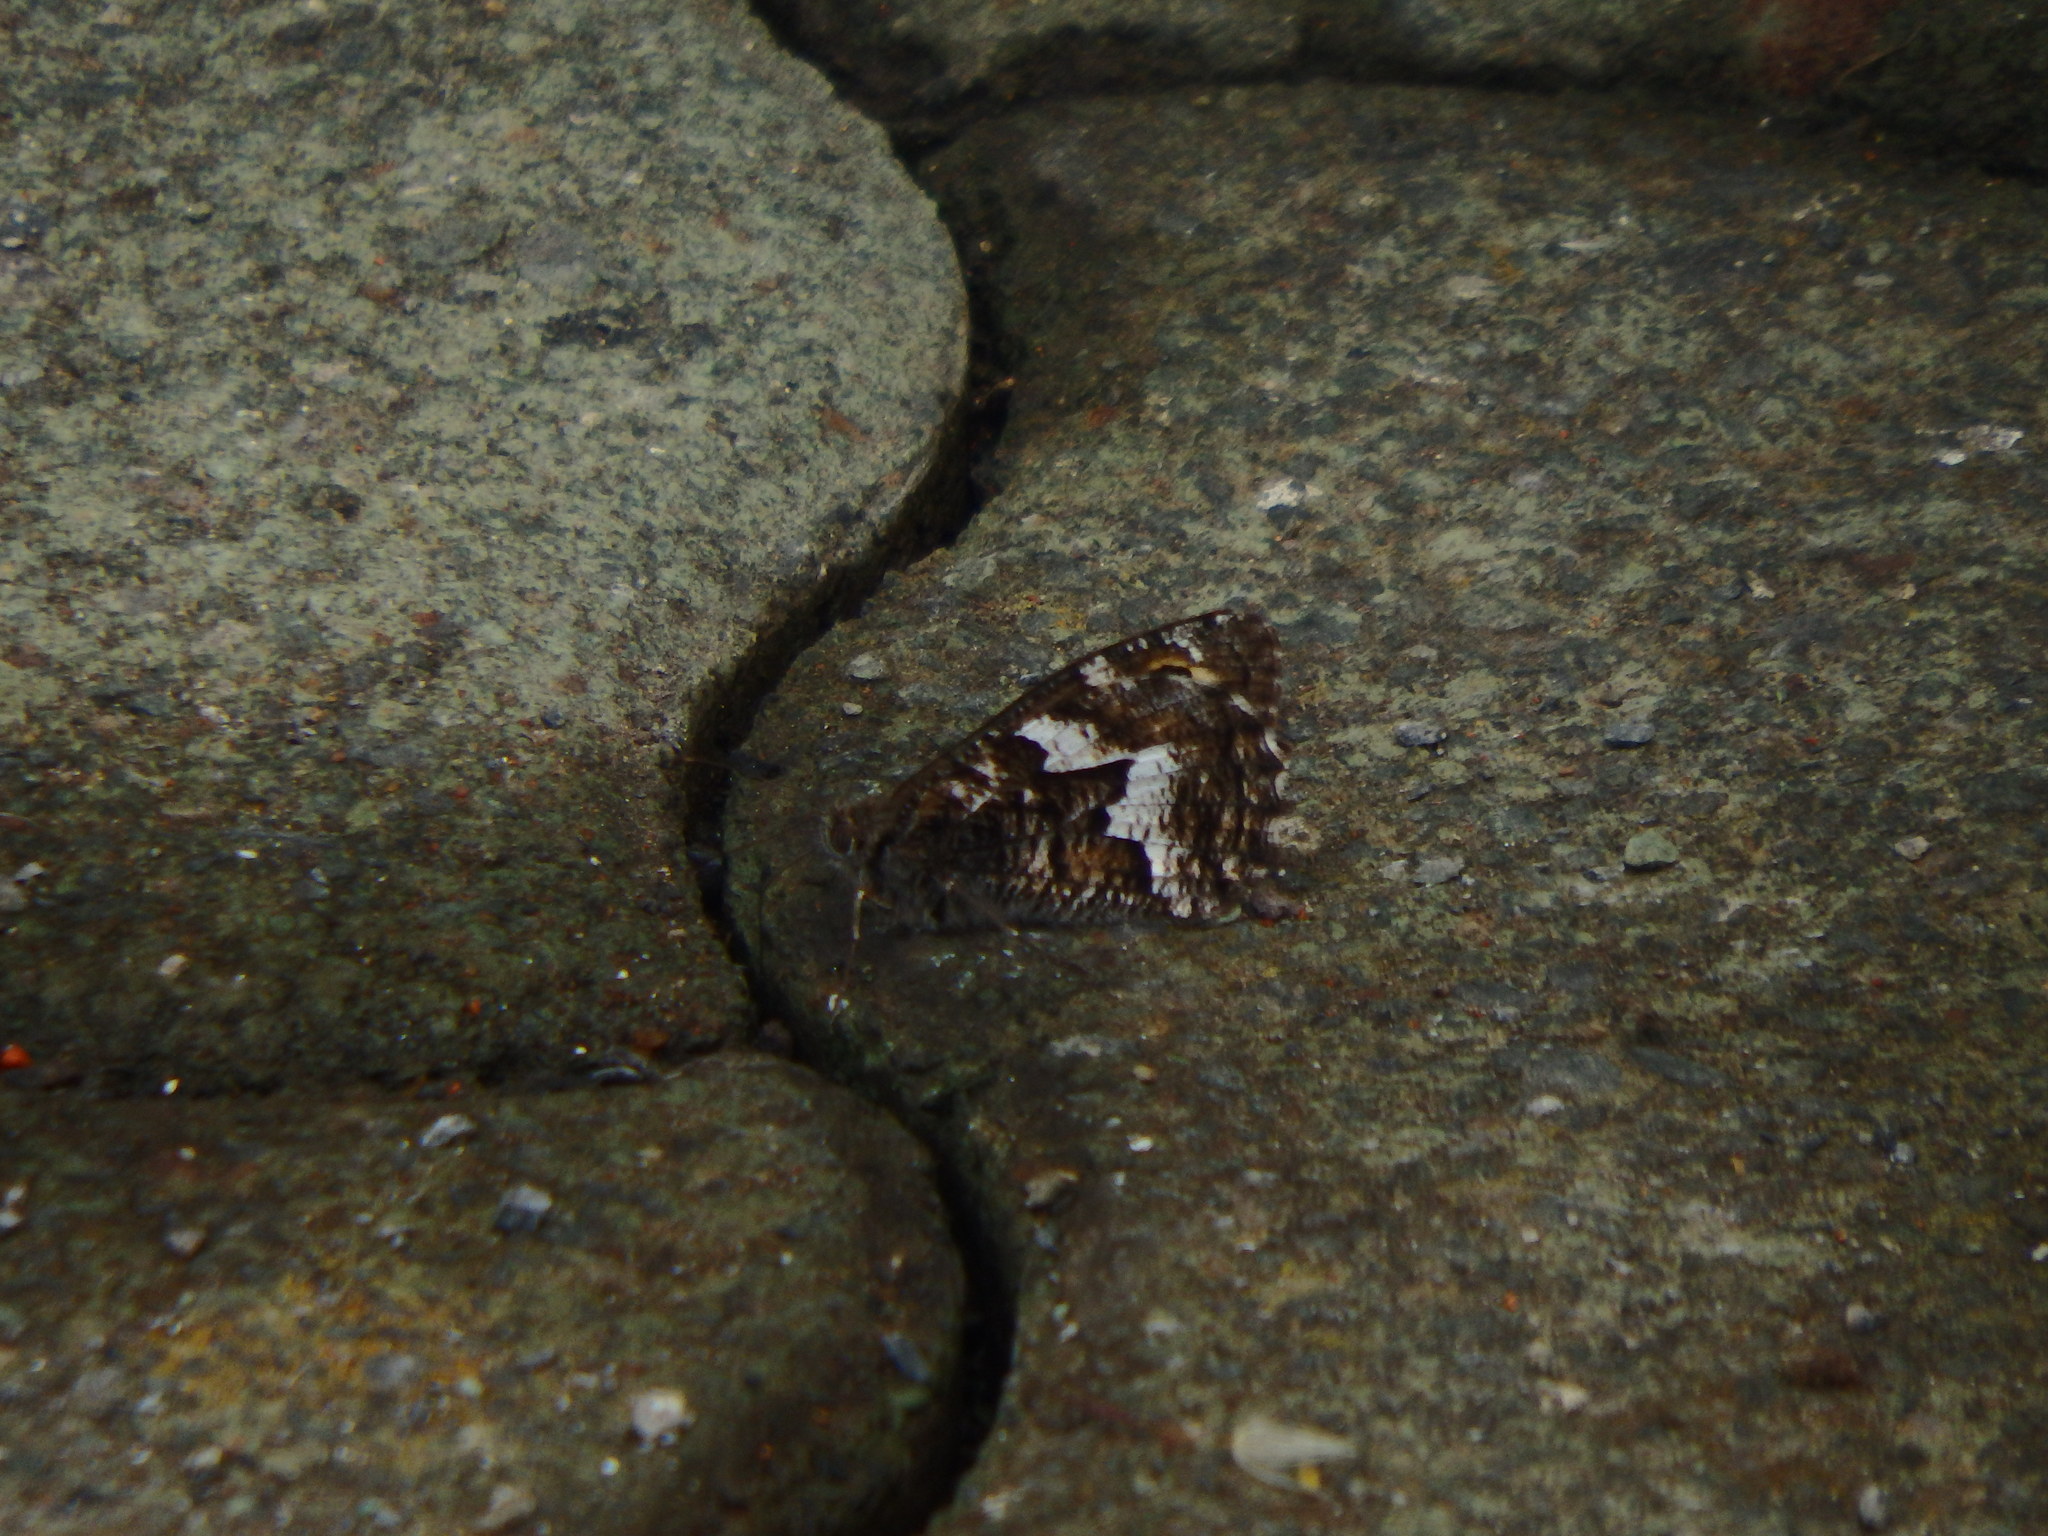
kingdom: Animalia
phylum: Arthropoda
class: Insecta
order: Lepidoptera
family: Nymphalidae
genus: Hipparchia
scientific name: Hipparchia algirica
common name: Mountain grayling
